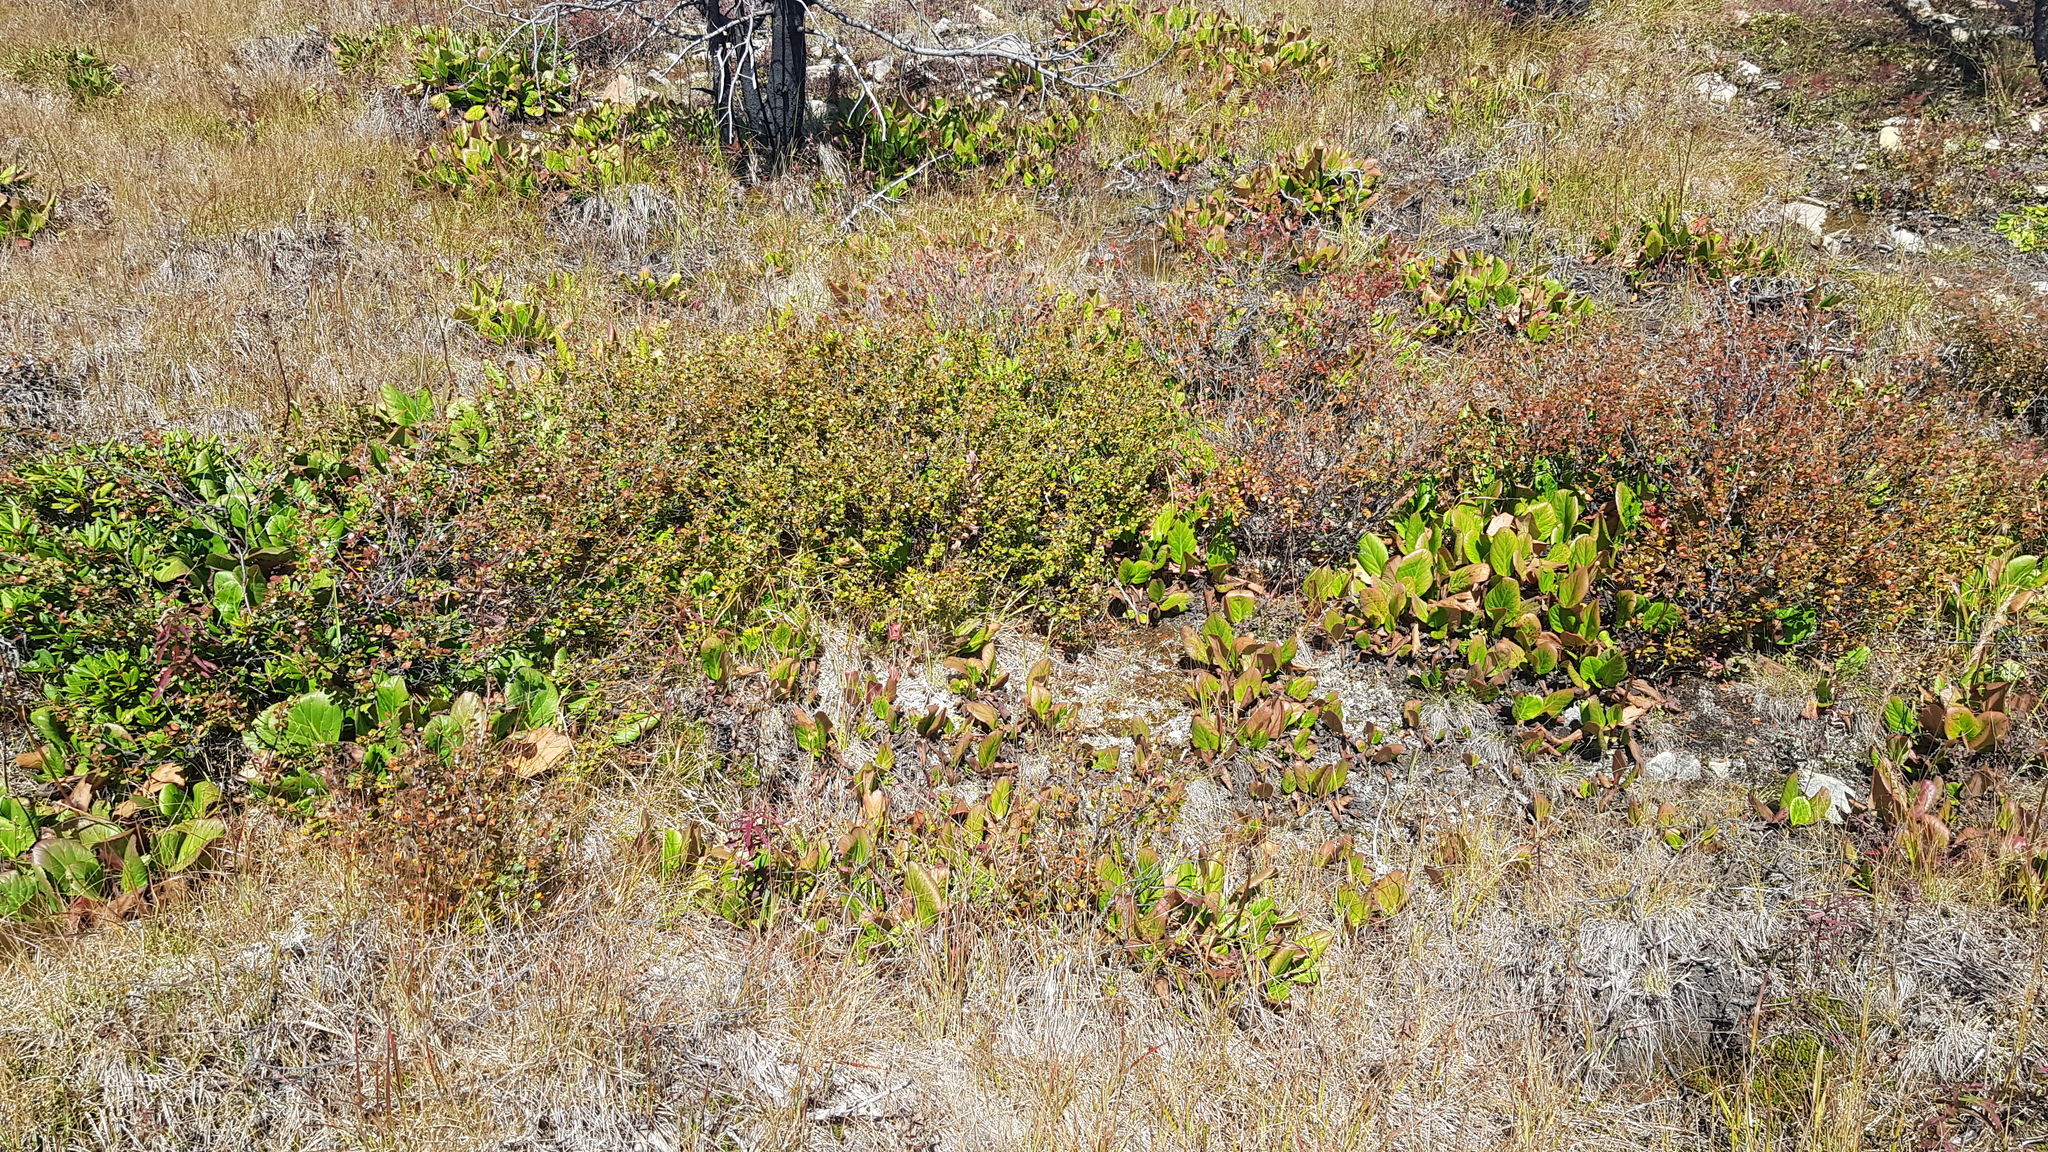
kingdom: Plantae
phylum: Tracheophyta
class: Magnoliopsida
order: Saxifragales
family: Saxifragaceae
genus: Bergenia
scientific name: Bergenia crassifolia
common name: Elephant-ears
